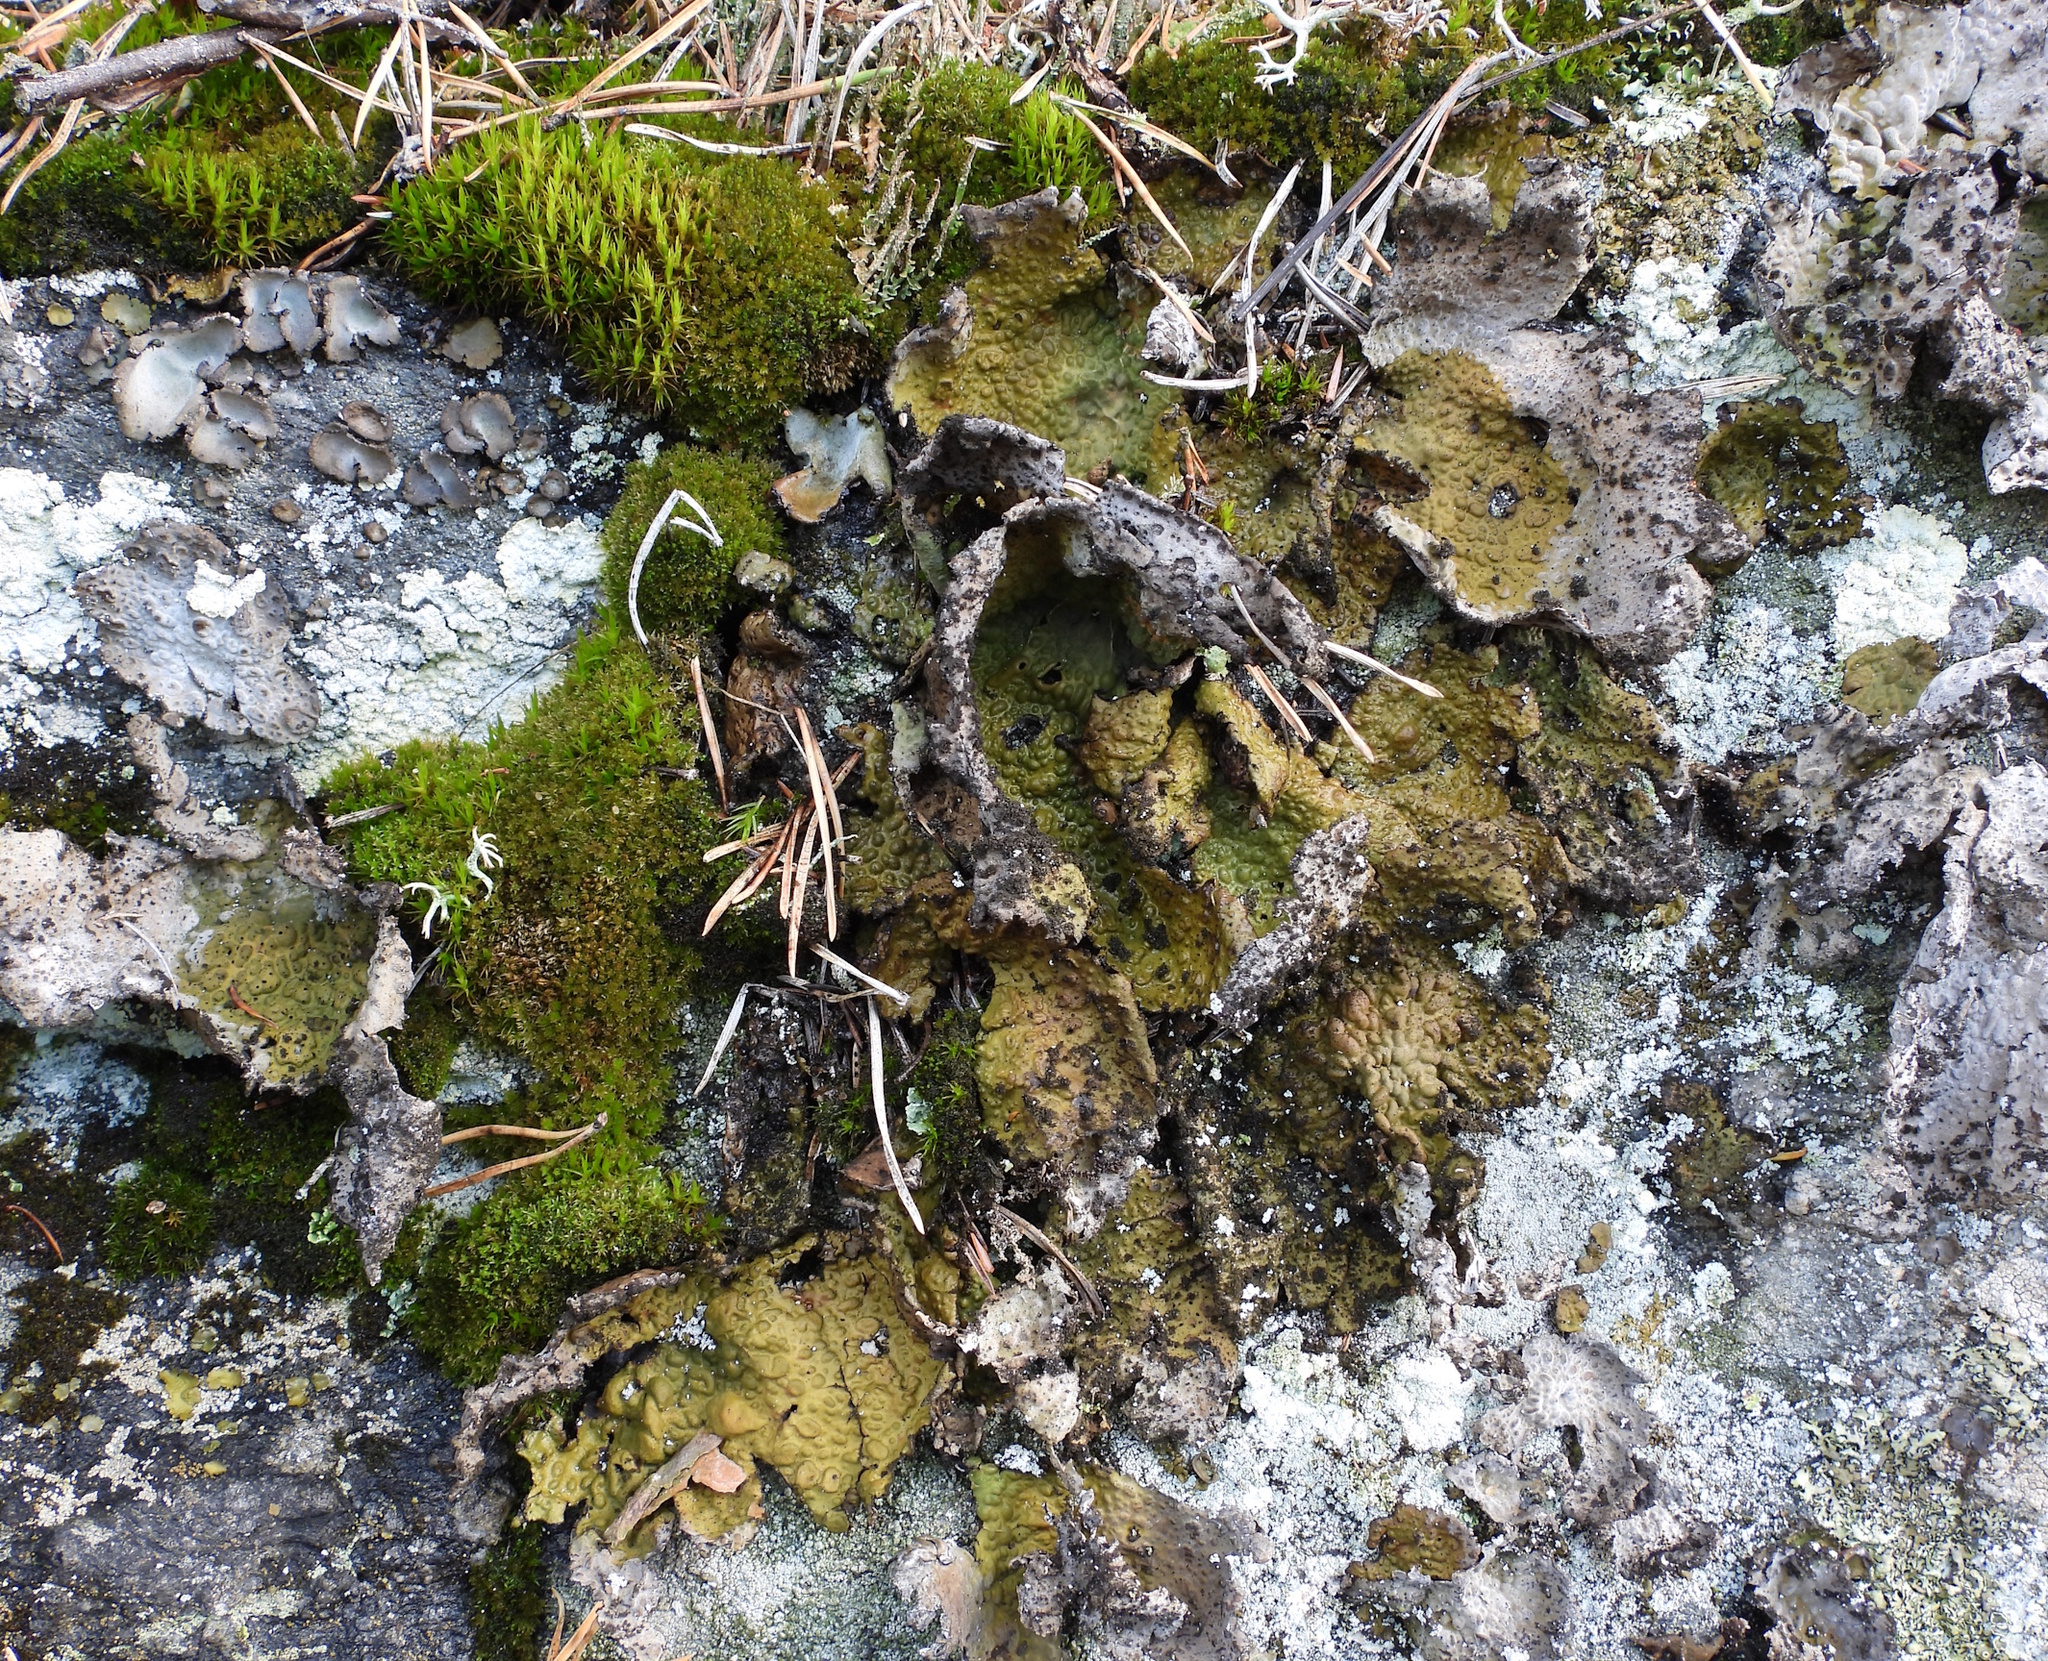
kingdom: Fungi
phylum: Ascomycota
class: Lecanoromycetes
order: Umbilicariales
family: Umbilicariaceae
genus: Lasallia
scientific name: Lasallia pustulata
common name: Blistered toadskin lichen
